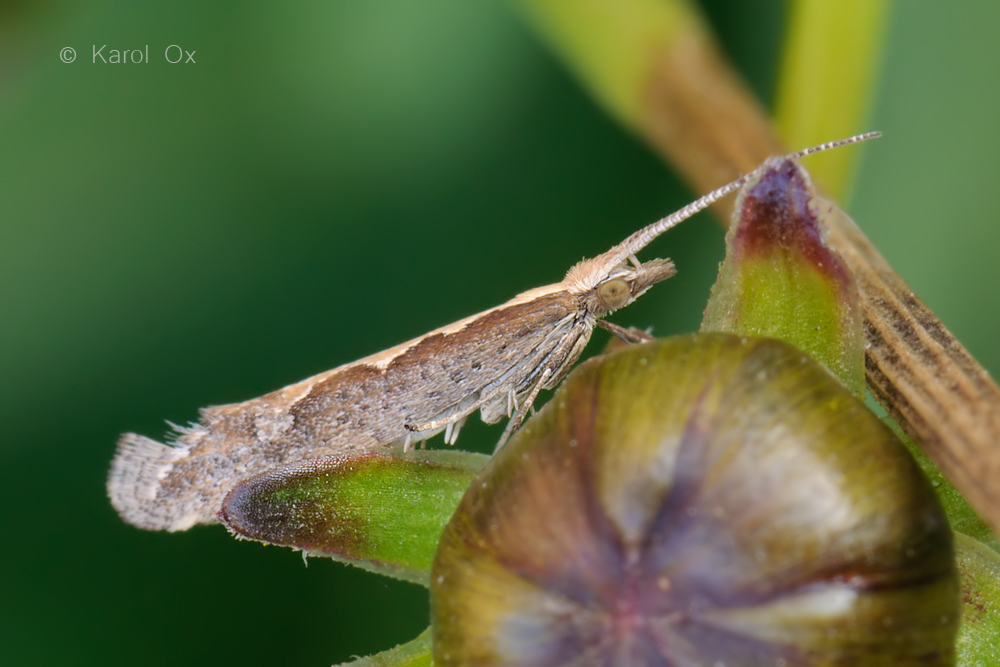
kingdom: Animalia
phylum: Arthropoda
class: Insecta
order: Lepidoptera
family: Plutellidae
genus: Plutella
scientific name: Plutella xylostella
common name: Diamond-back moth
